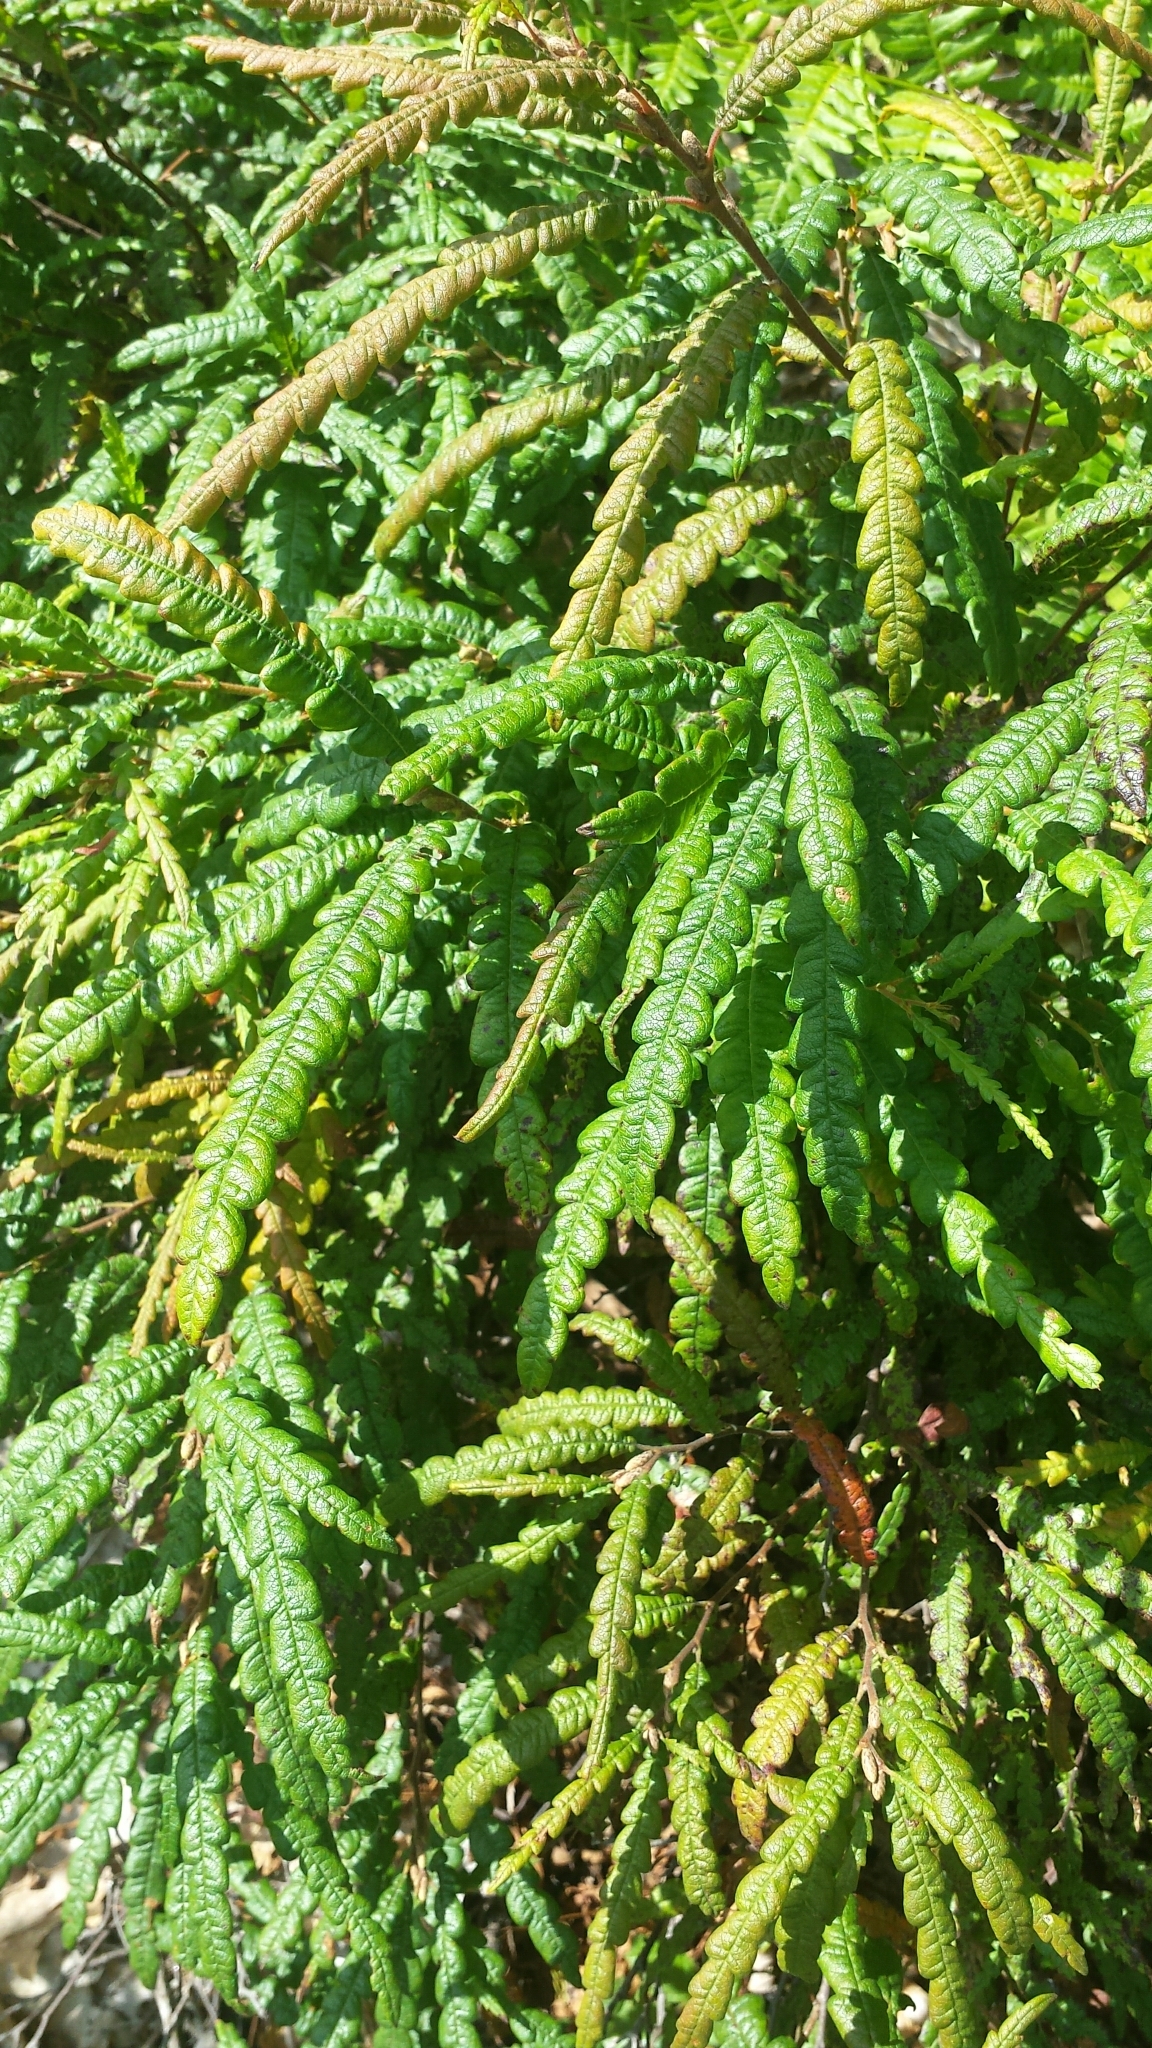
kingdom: Plantae
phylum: Tracheophyta
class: Magnoliopsida
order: Fagales
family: Myricaceae
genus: Comptonia
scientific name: Comptonia peregrina
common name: Sweet-fern
